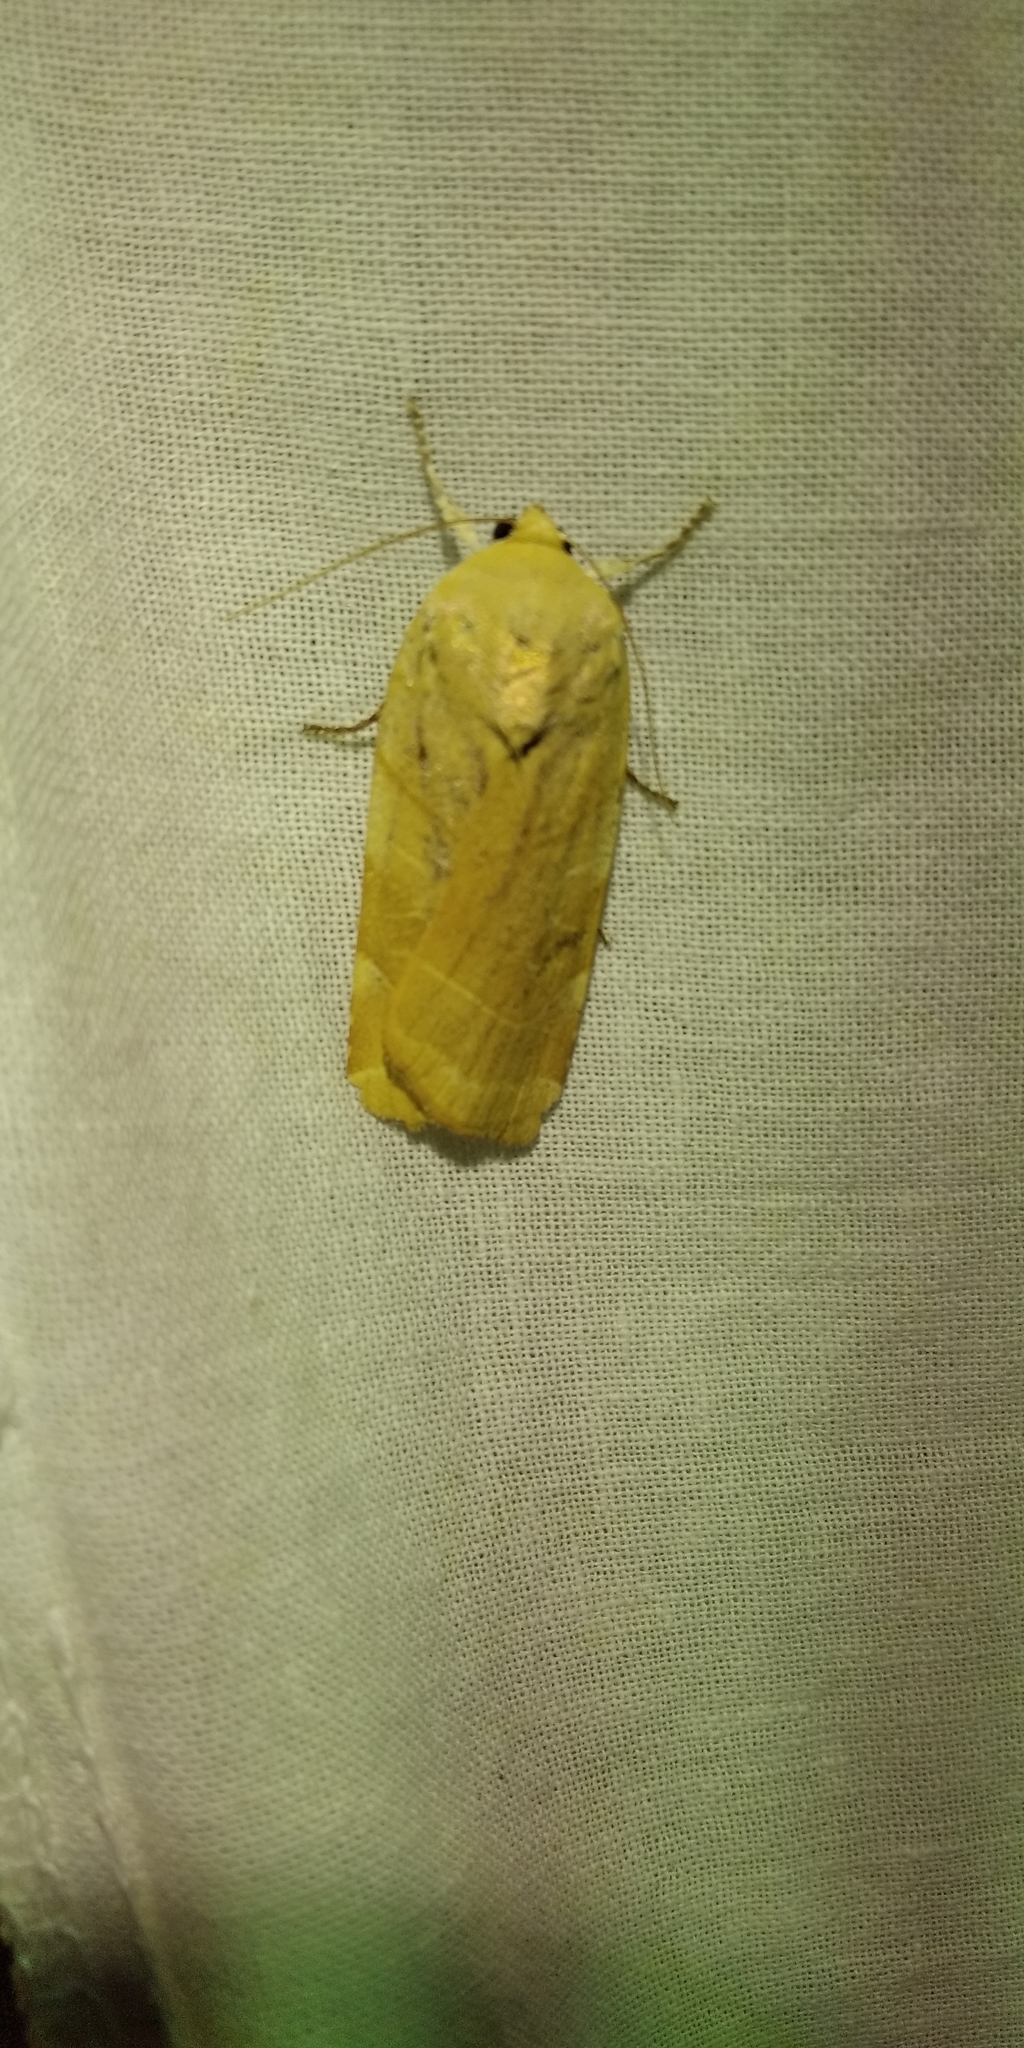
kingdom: Animalia
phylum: Arthropoda
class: Insecta
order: Lepidoptera
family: Noctuidae
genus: Noctua
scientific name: Noctua fimbriata
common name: Broad-bordered yellow underwing
